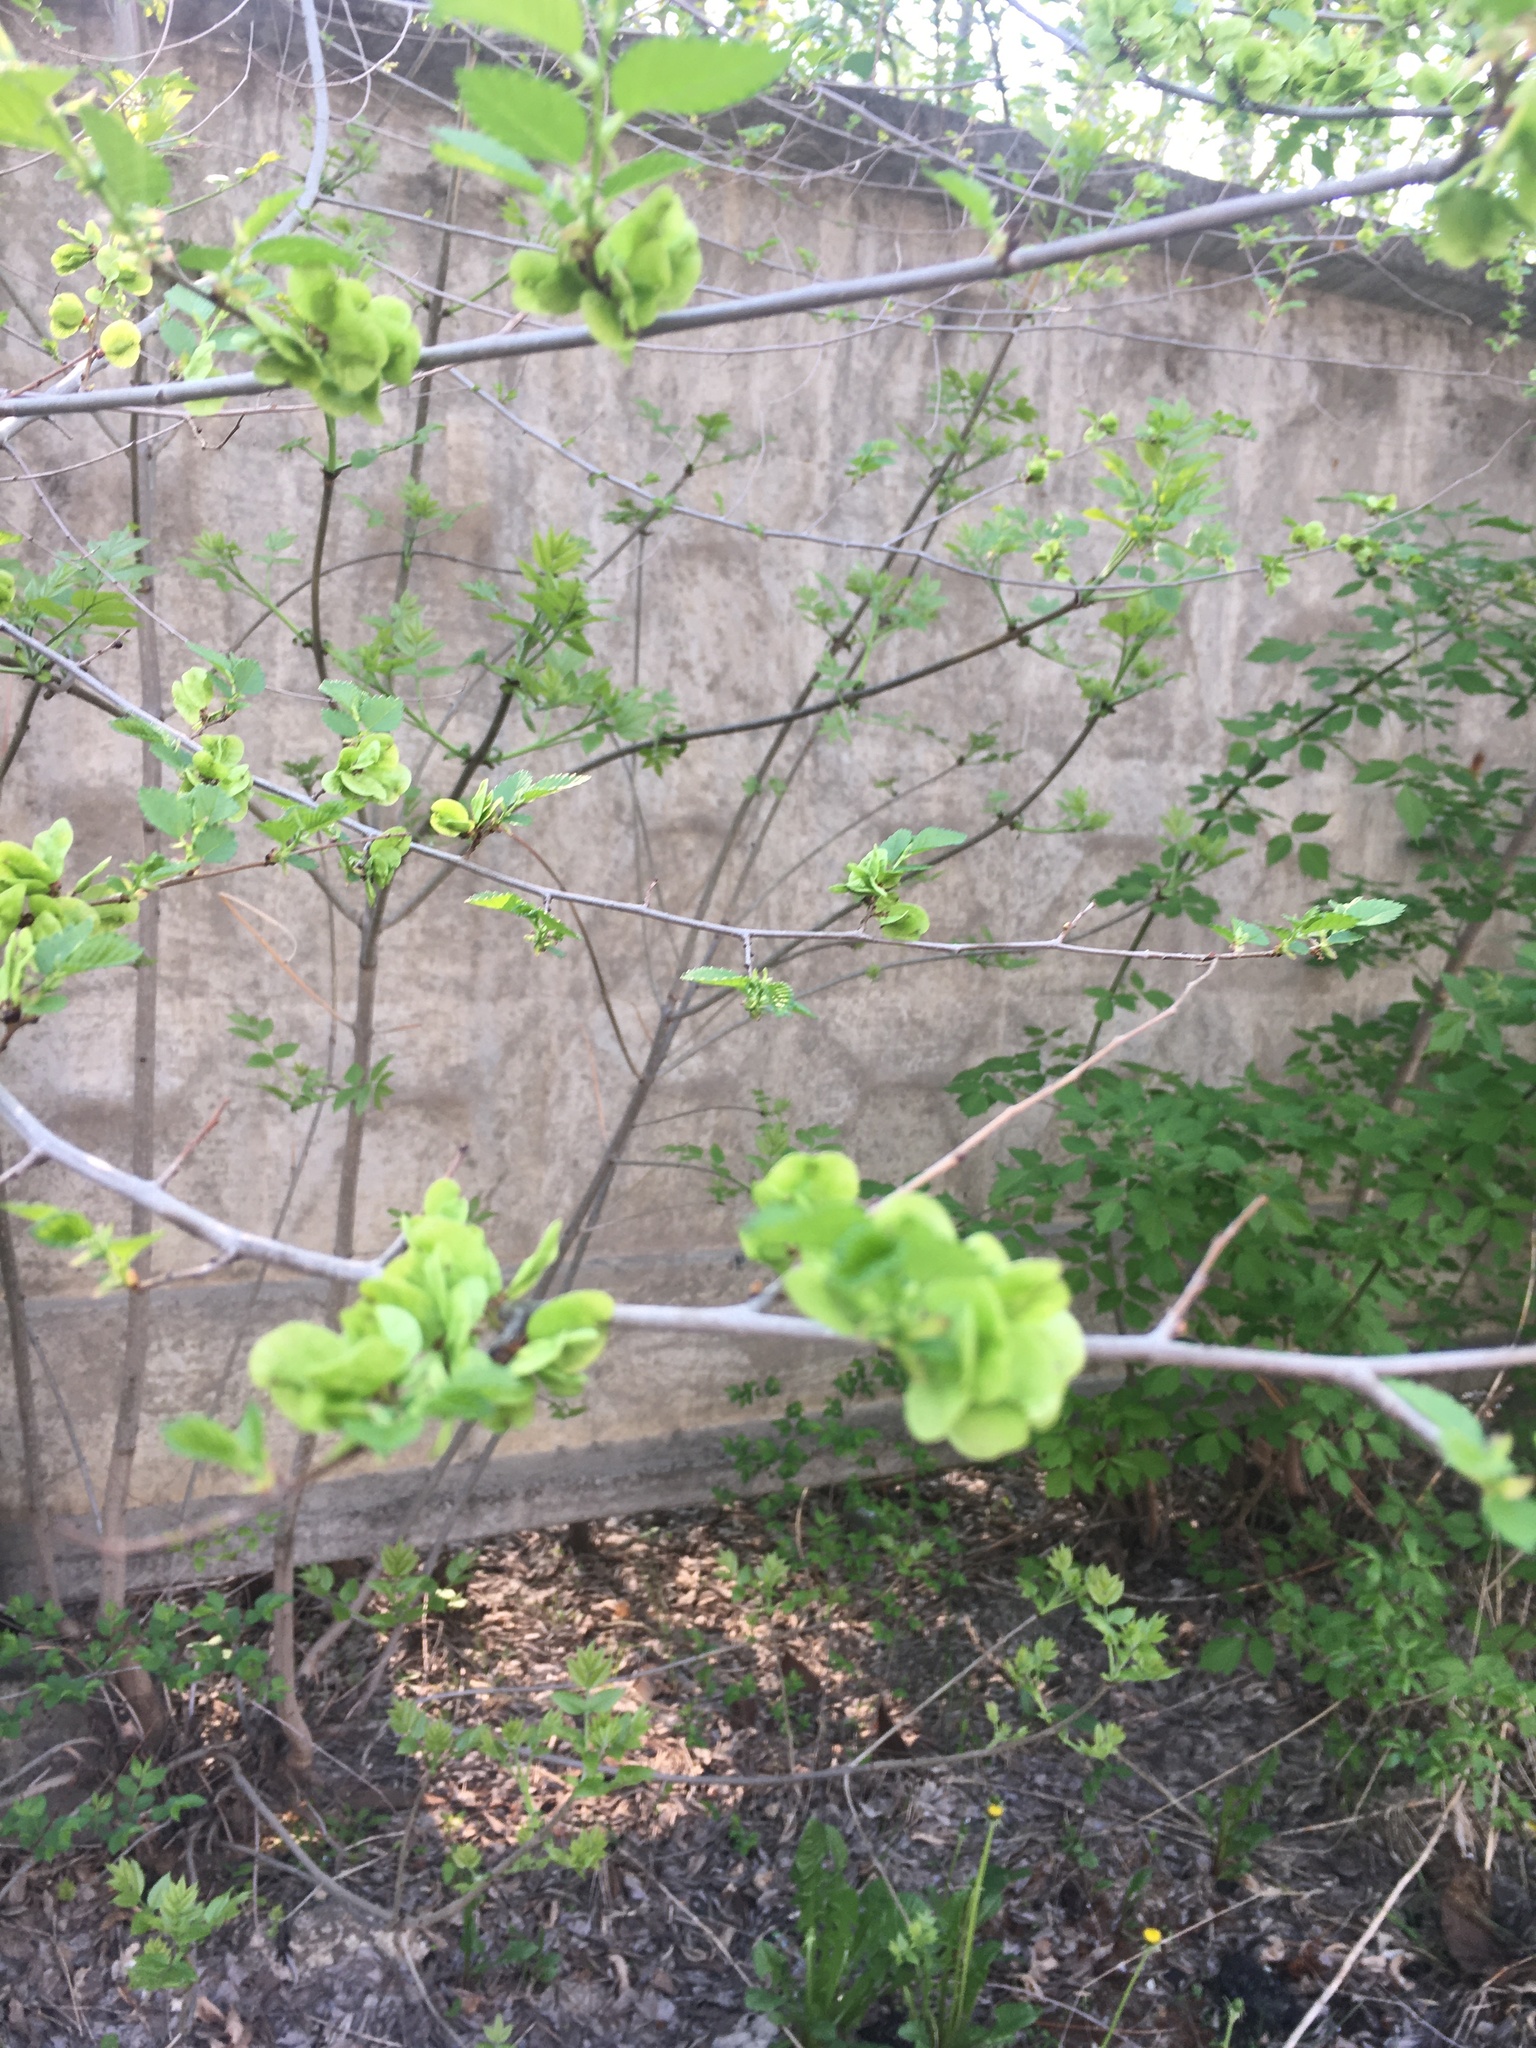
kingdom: Plantae
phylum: Tracheophyta
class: Magnoliopsida
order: Rosales
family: Ulmaceae
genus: Ulmus
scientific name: Ulmus pumila
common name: Siberian elm
